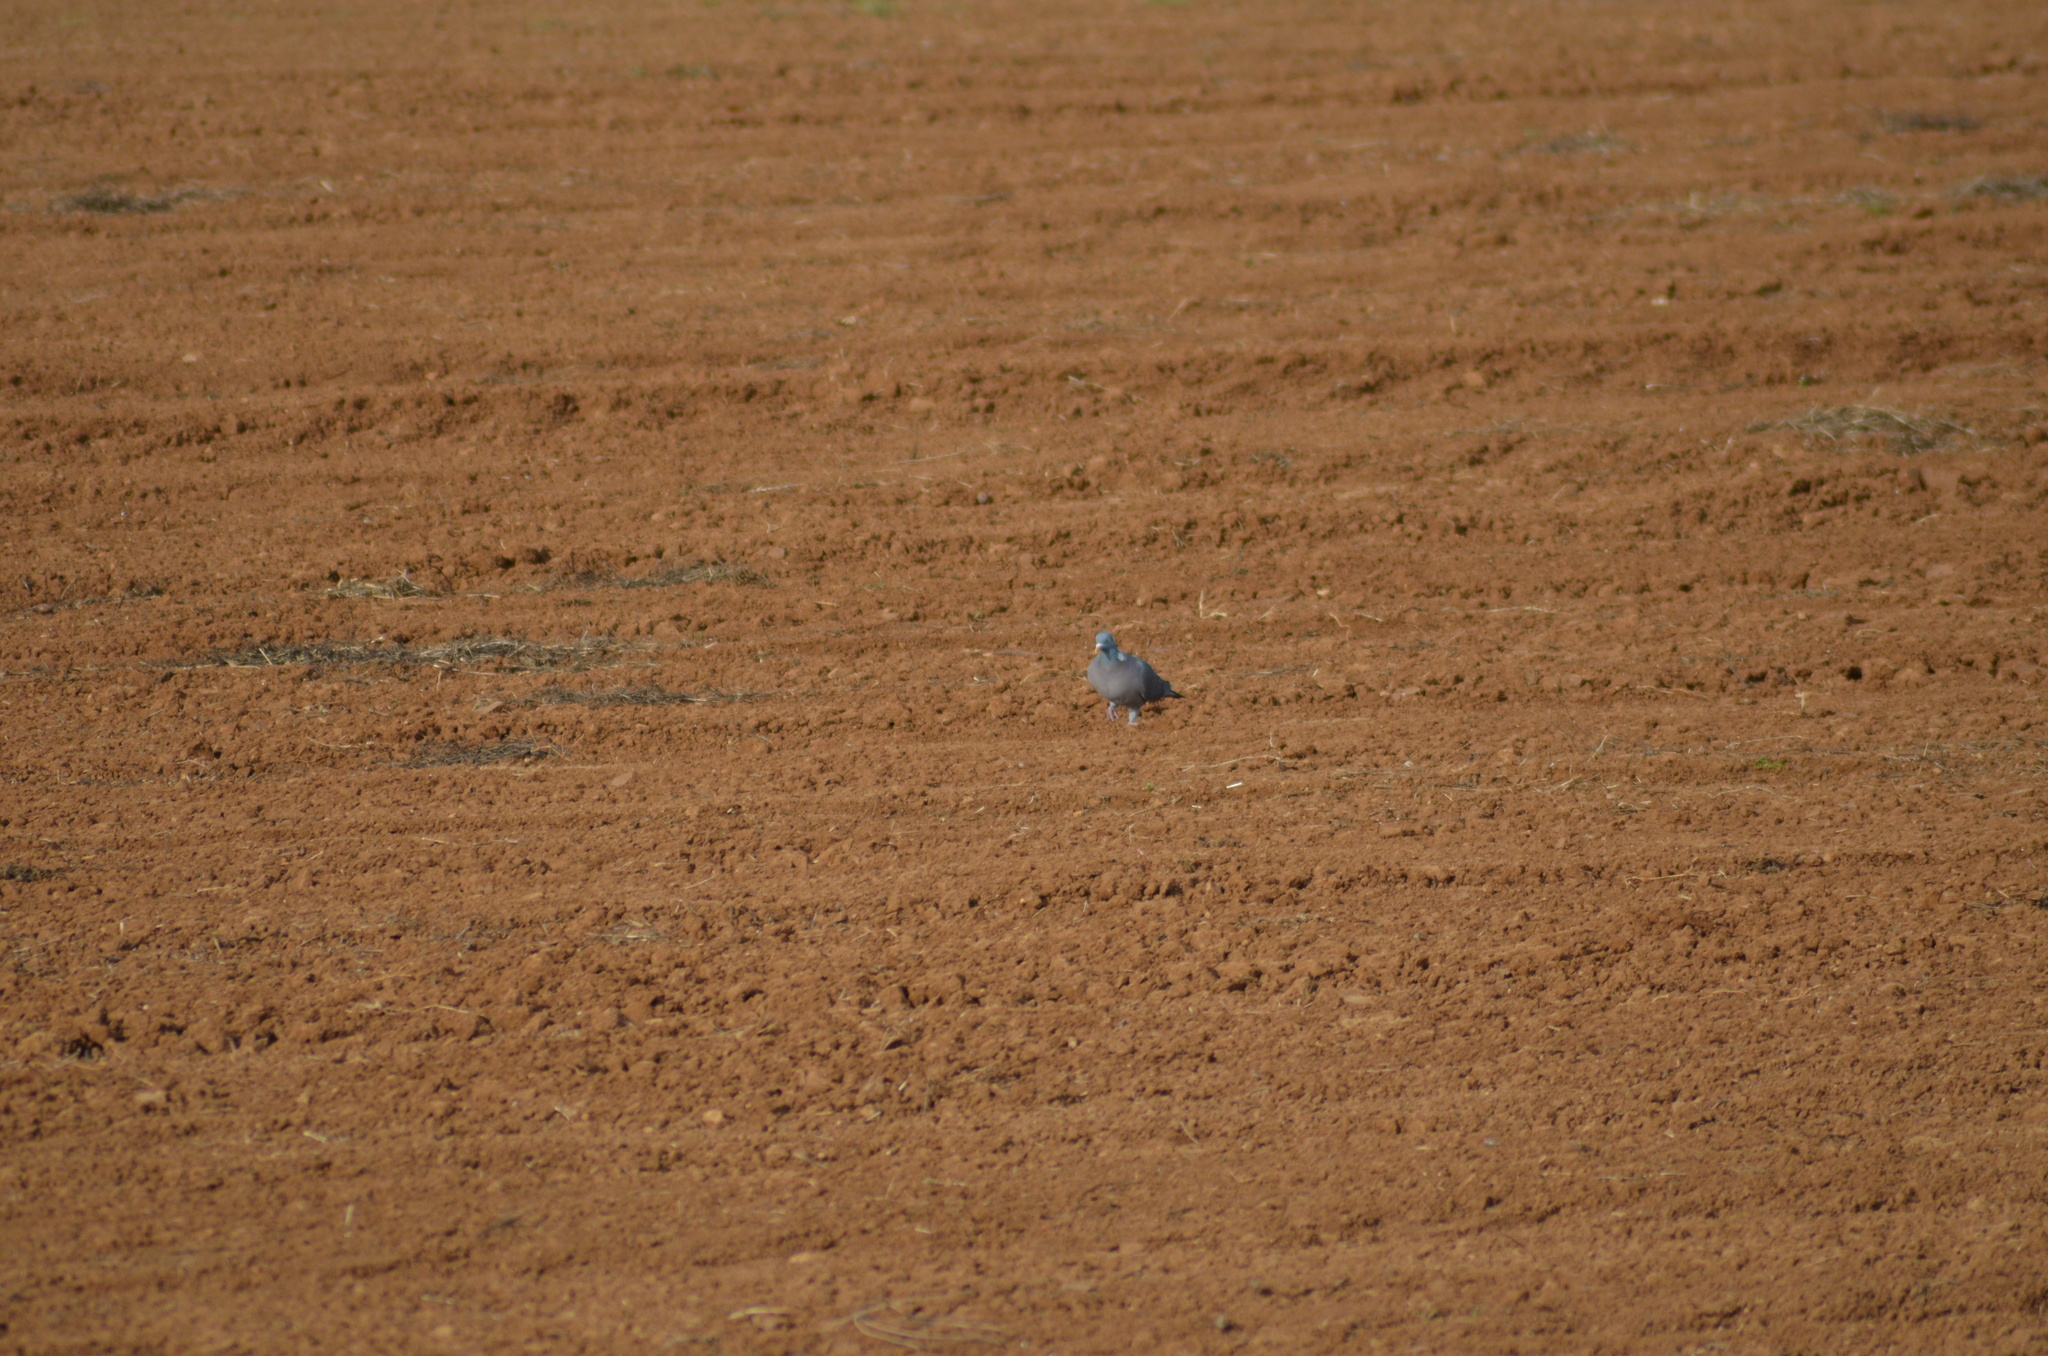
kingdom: Animalia
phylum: Chordata
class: Aves
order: Columbiformes
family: Columbidae
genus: Columba
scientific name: Columba palumbus
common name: Common wood pigeon
